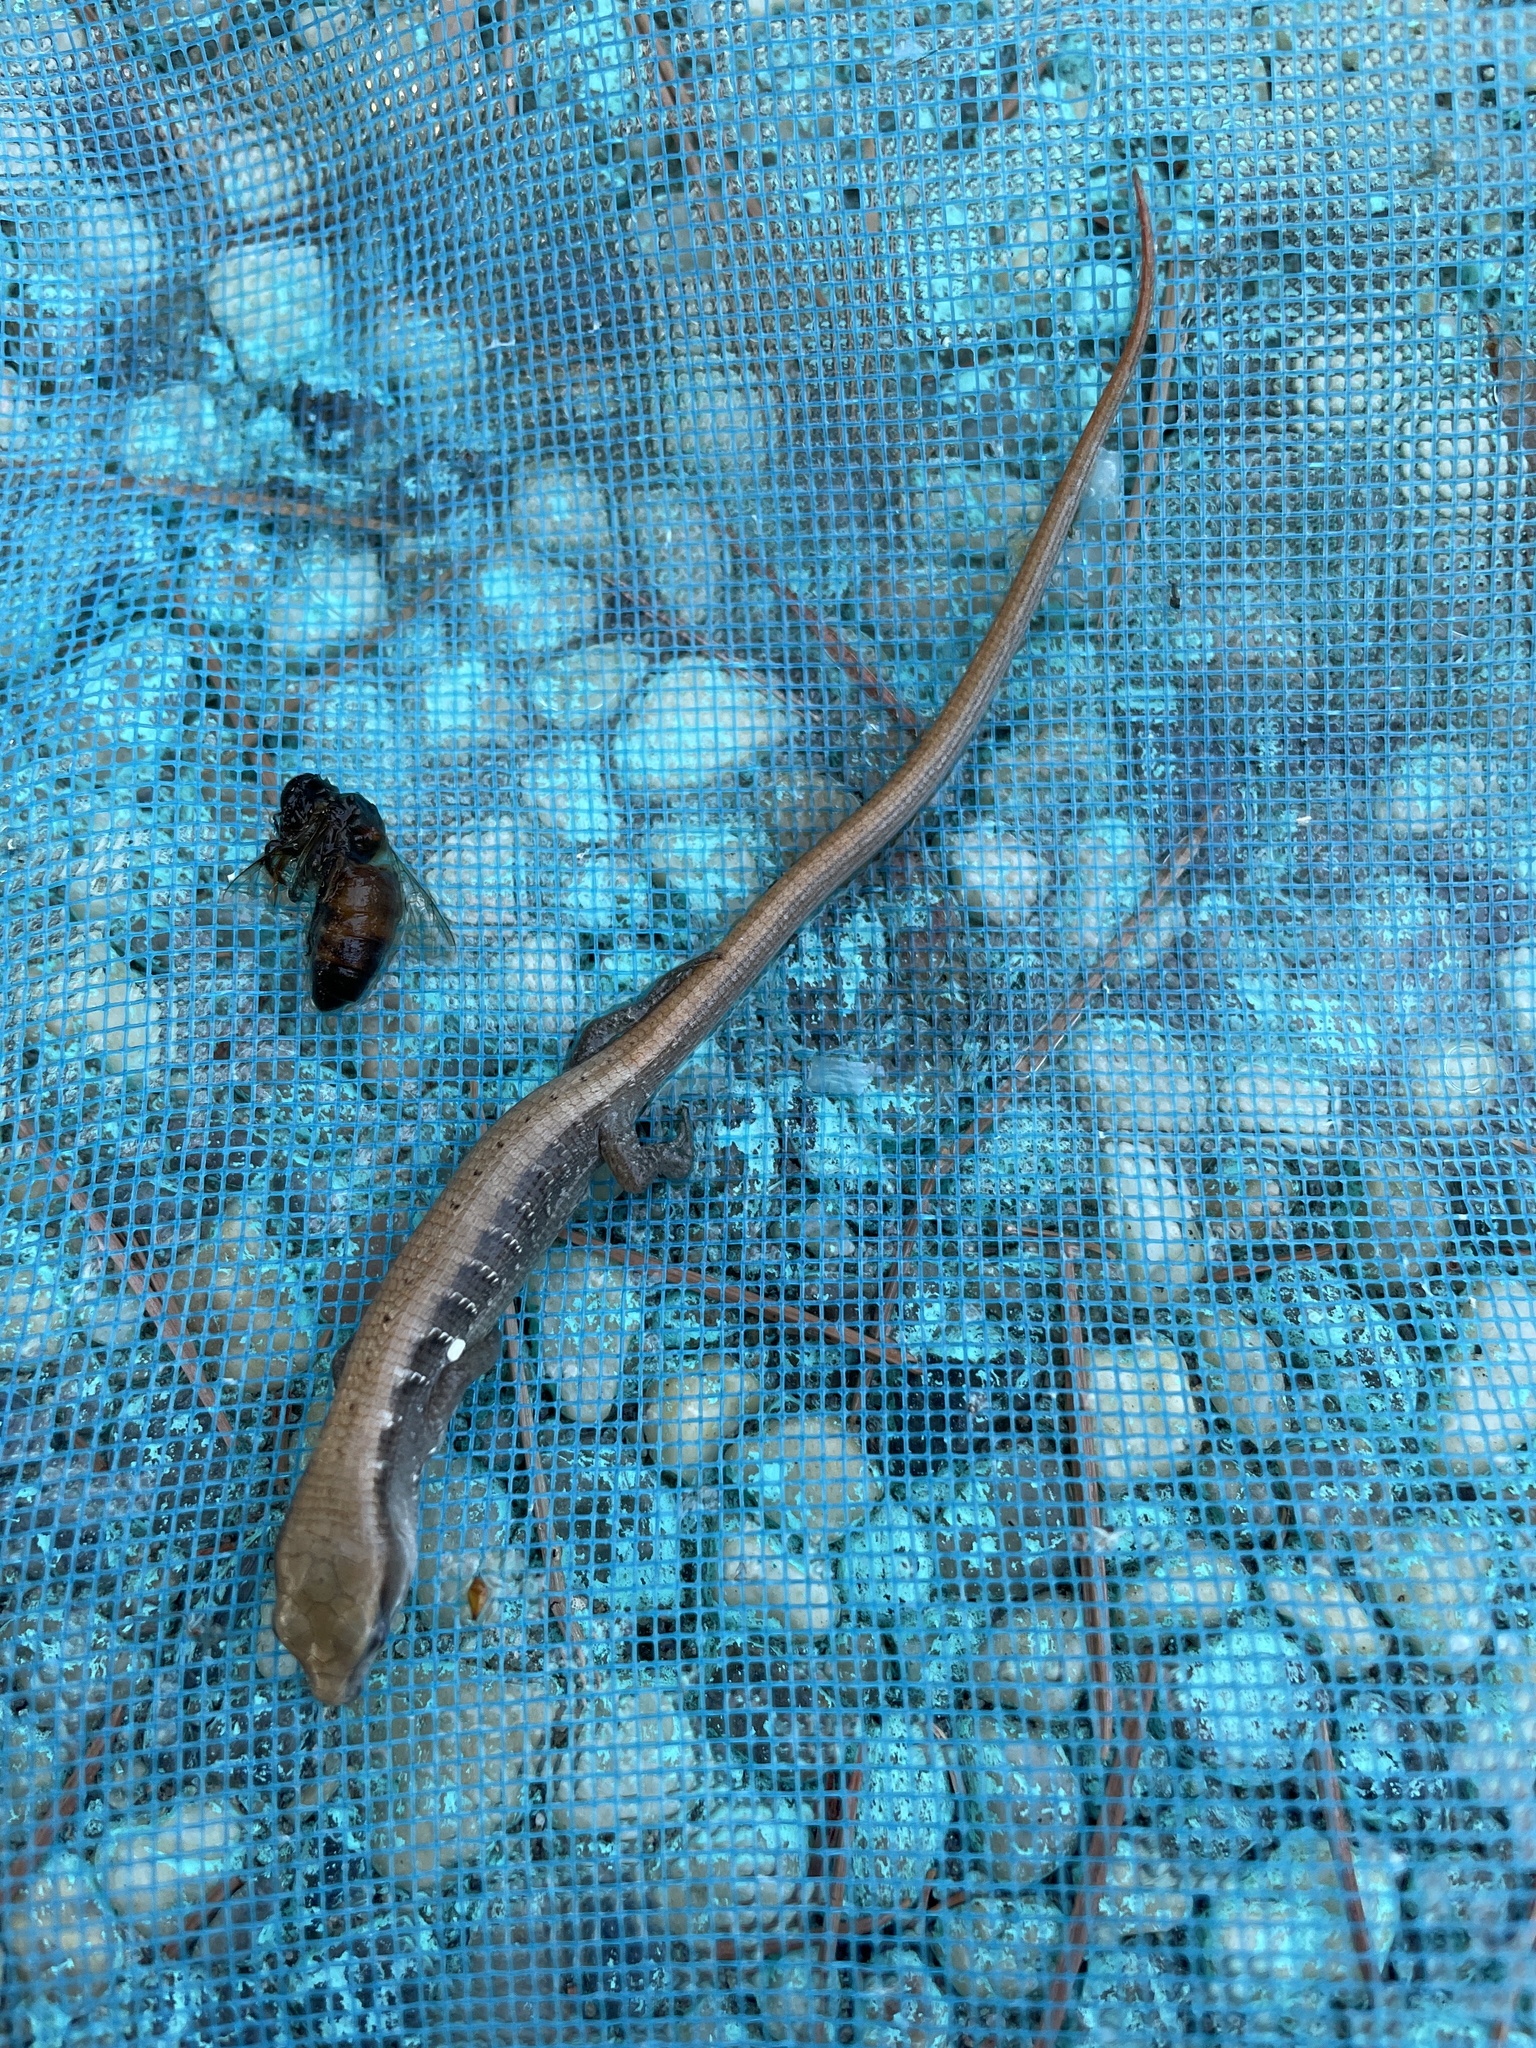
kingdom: Animalia
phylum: Chordata
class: Squamata
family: Anguidae
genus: Elgaria
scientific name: Elgaria multicarinata
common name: Southern alligator lizard
